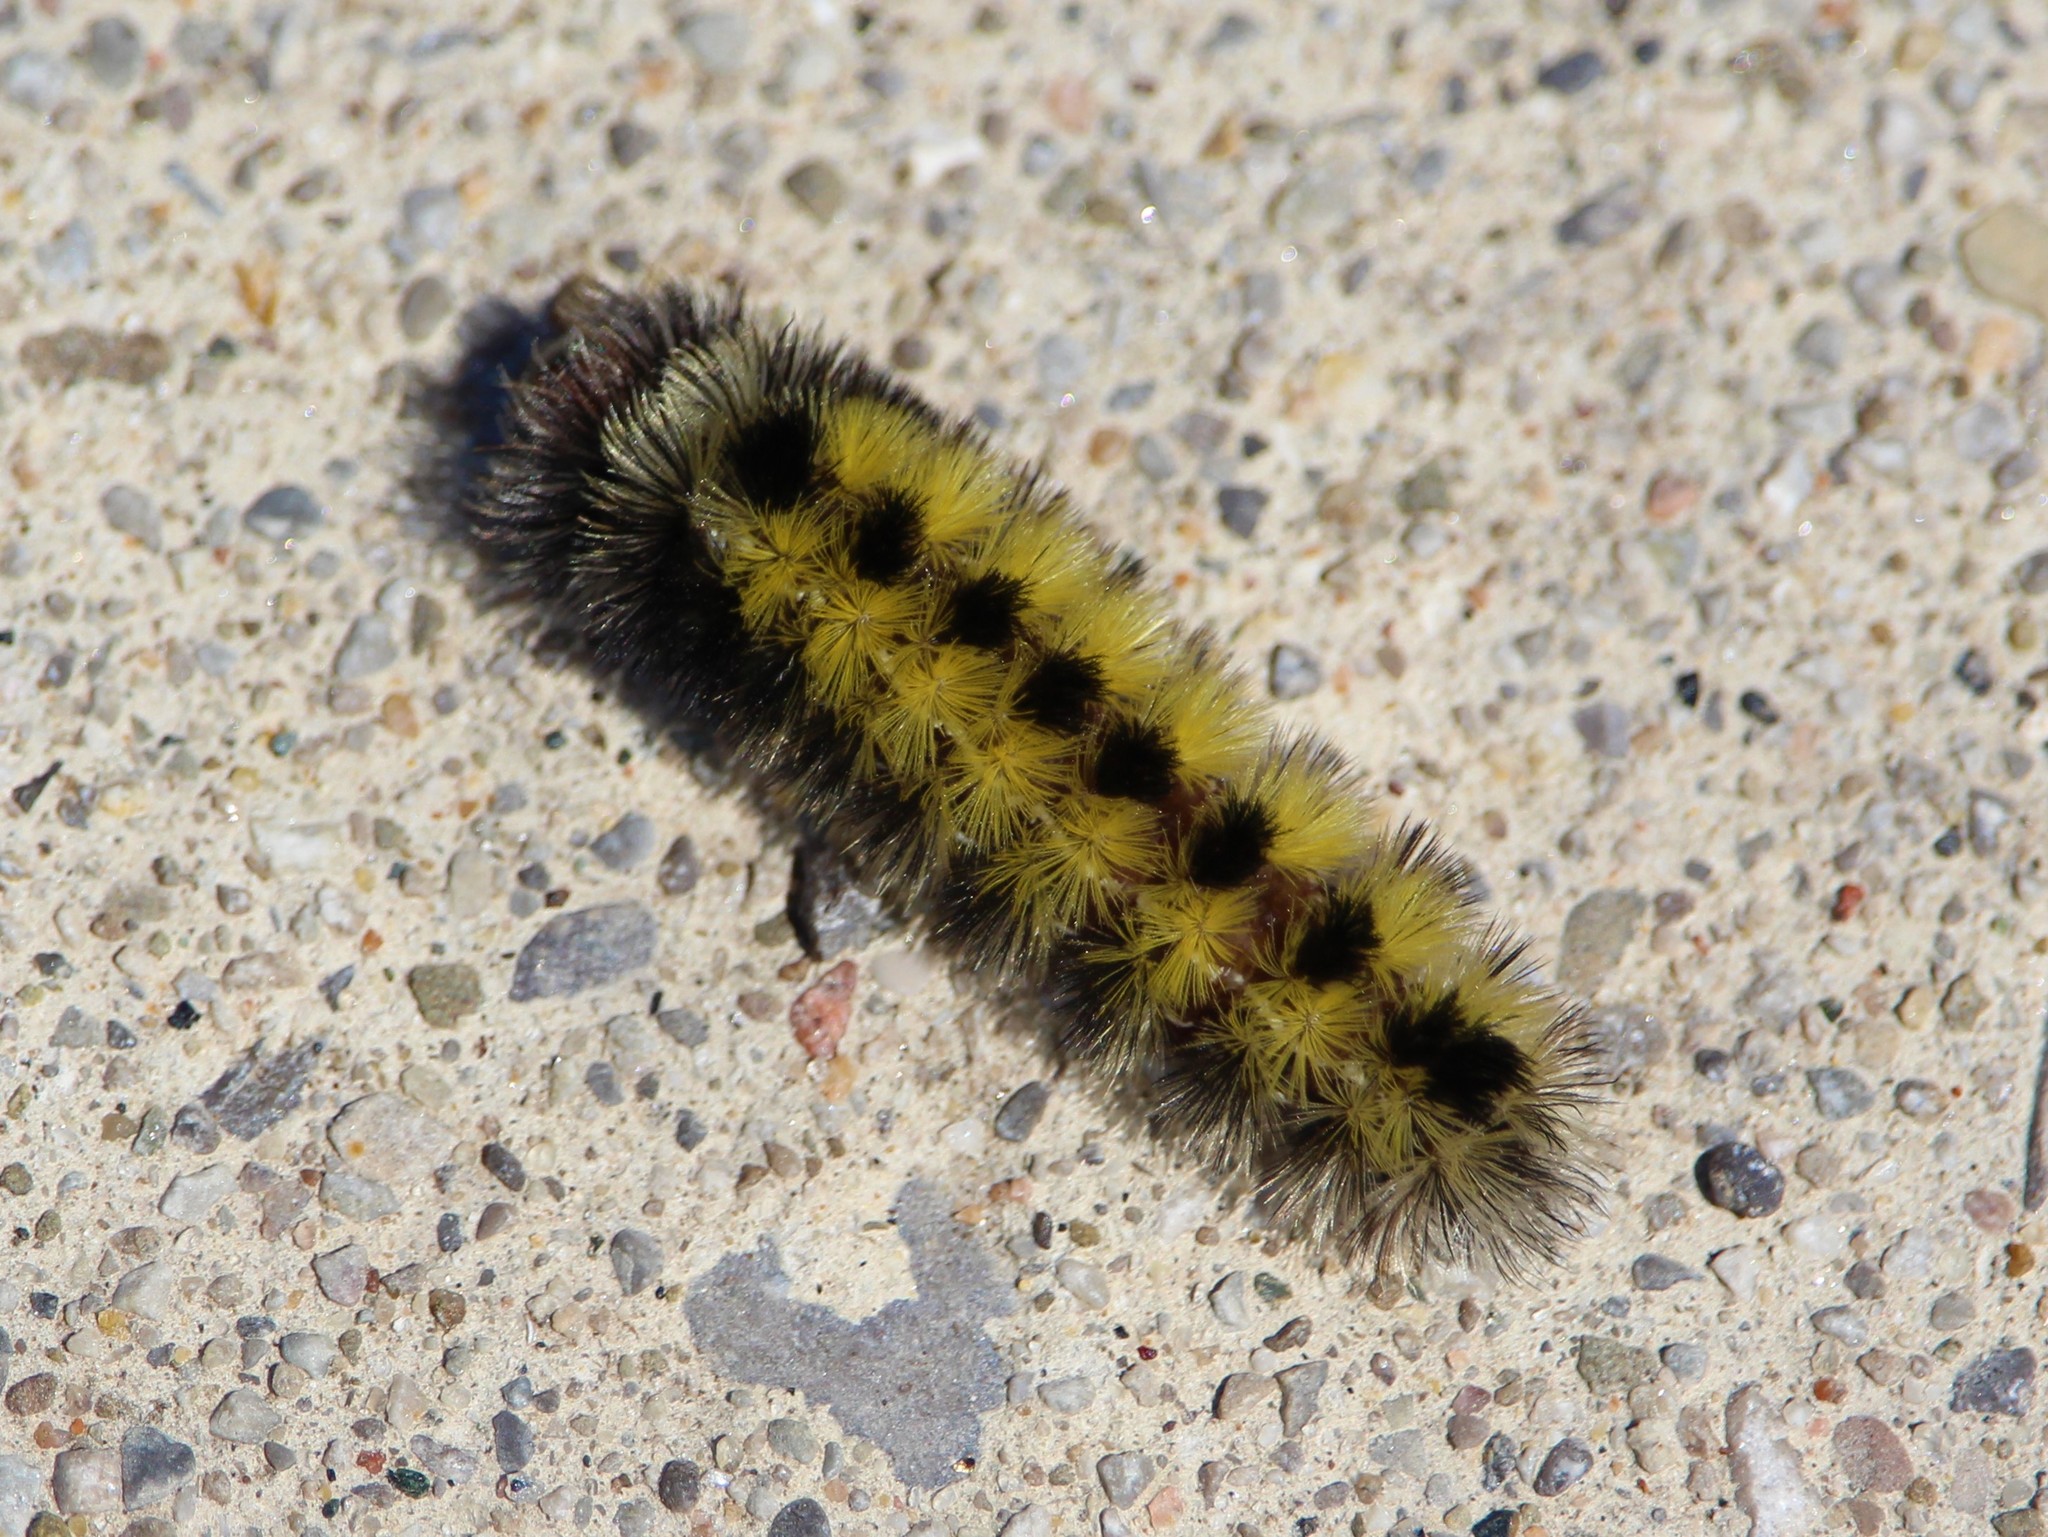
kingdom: Animalia
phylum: Arthropoda
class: Insecta
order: Lepidoptera
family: Erebidae
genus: Ctenucha
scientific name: Ctenucha virginica
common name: Virginia ctenucha moth
